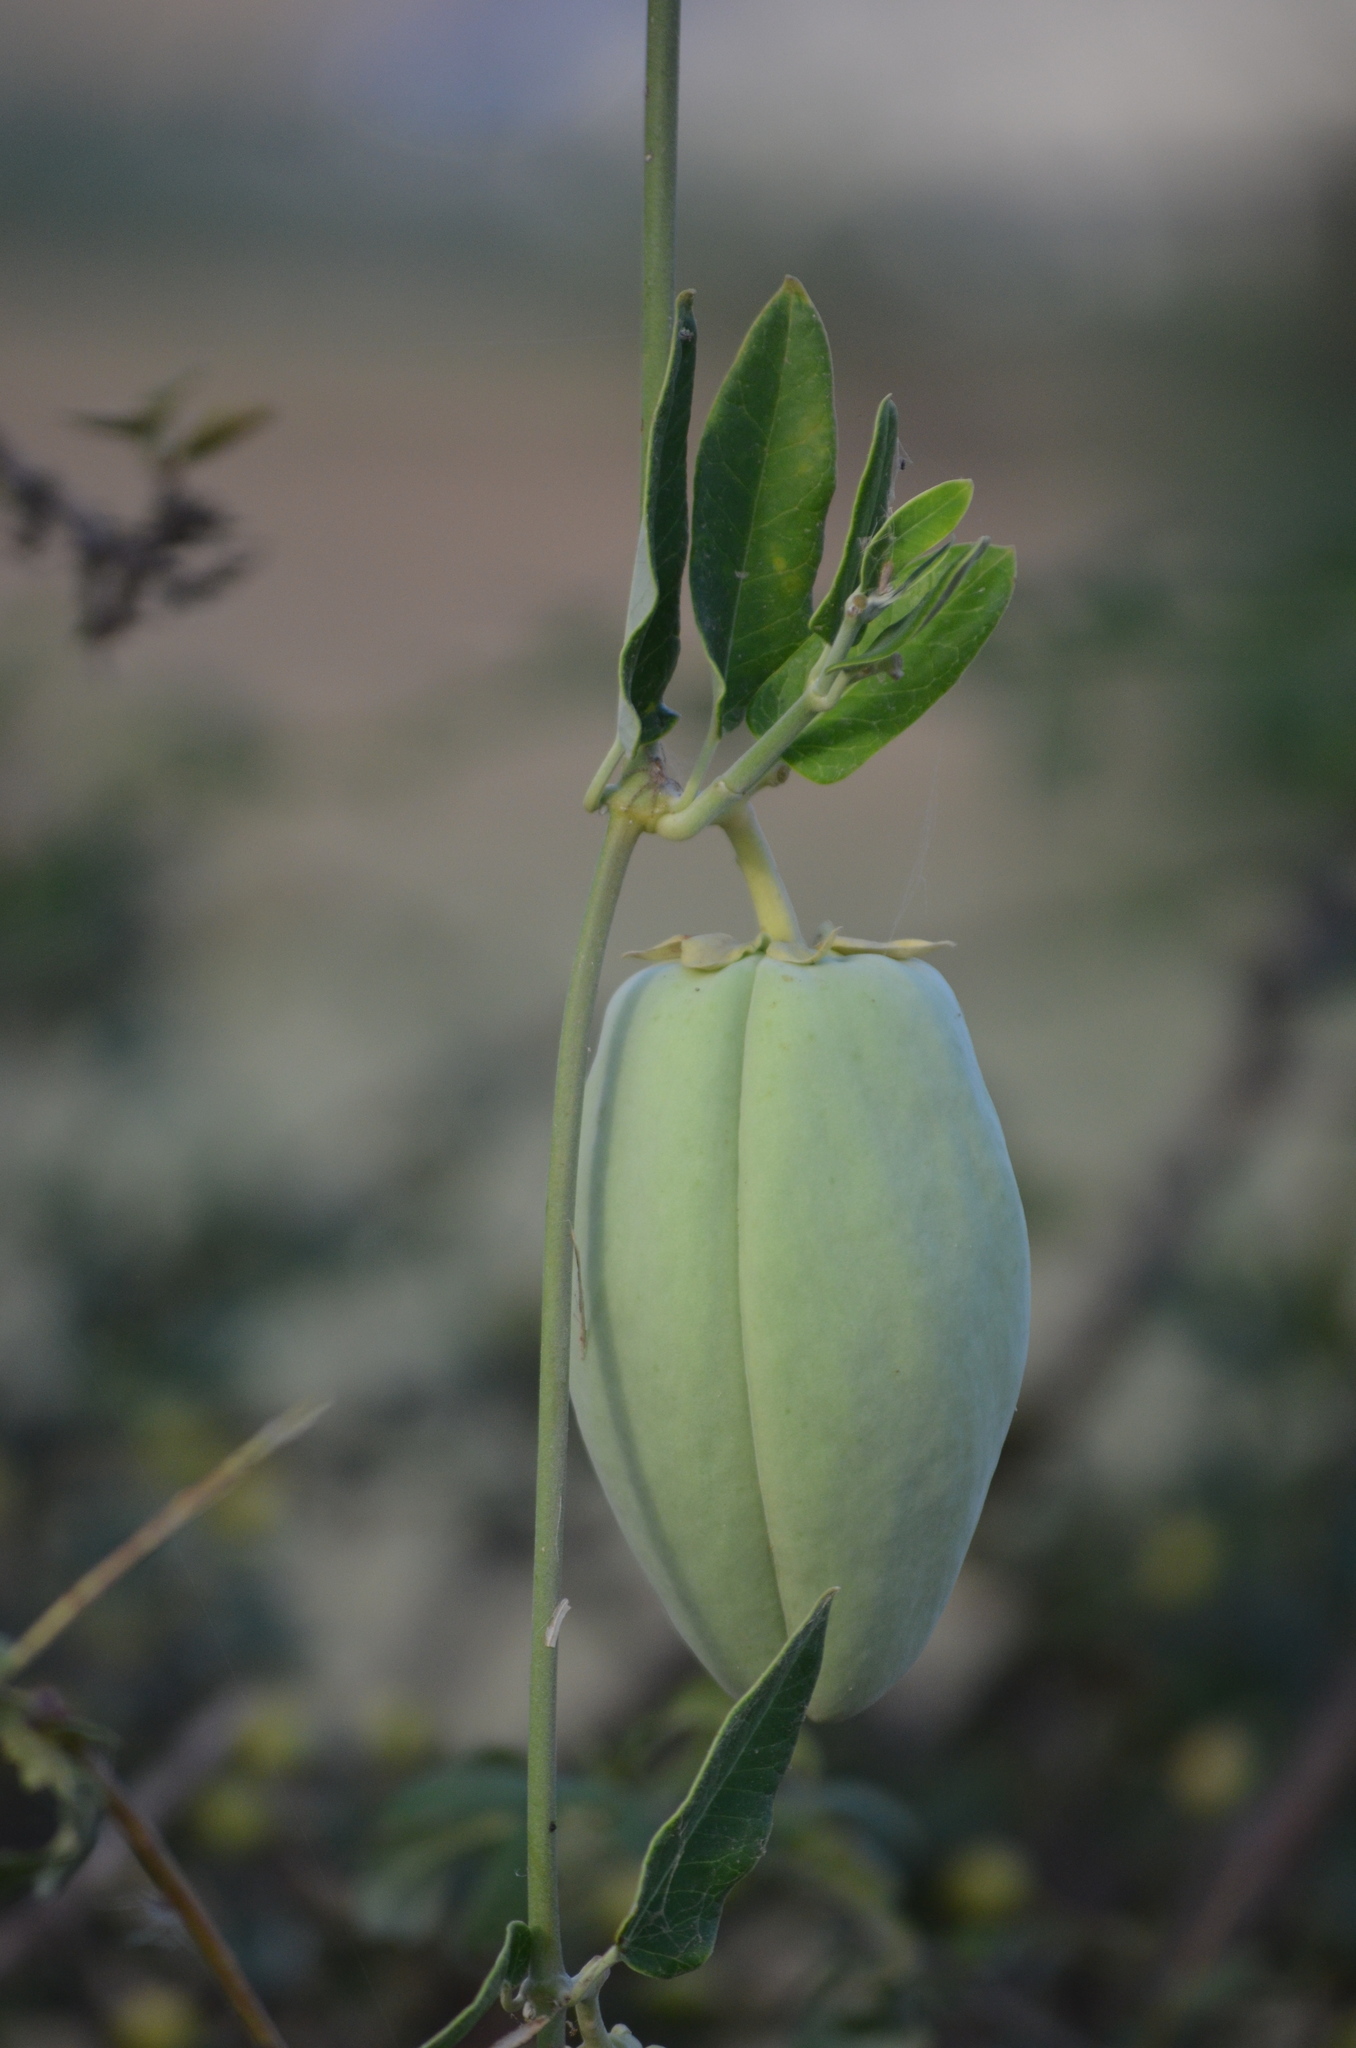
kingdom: Plantae
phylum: Tracheophyta
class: Magnoliopsida
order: Gentianales
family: Apocynaceae
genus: Araujia
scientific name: Araujia sericifera
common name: White bladderflower
